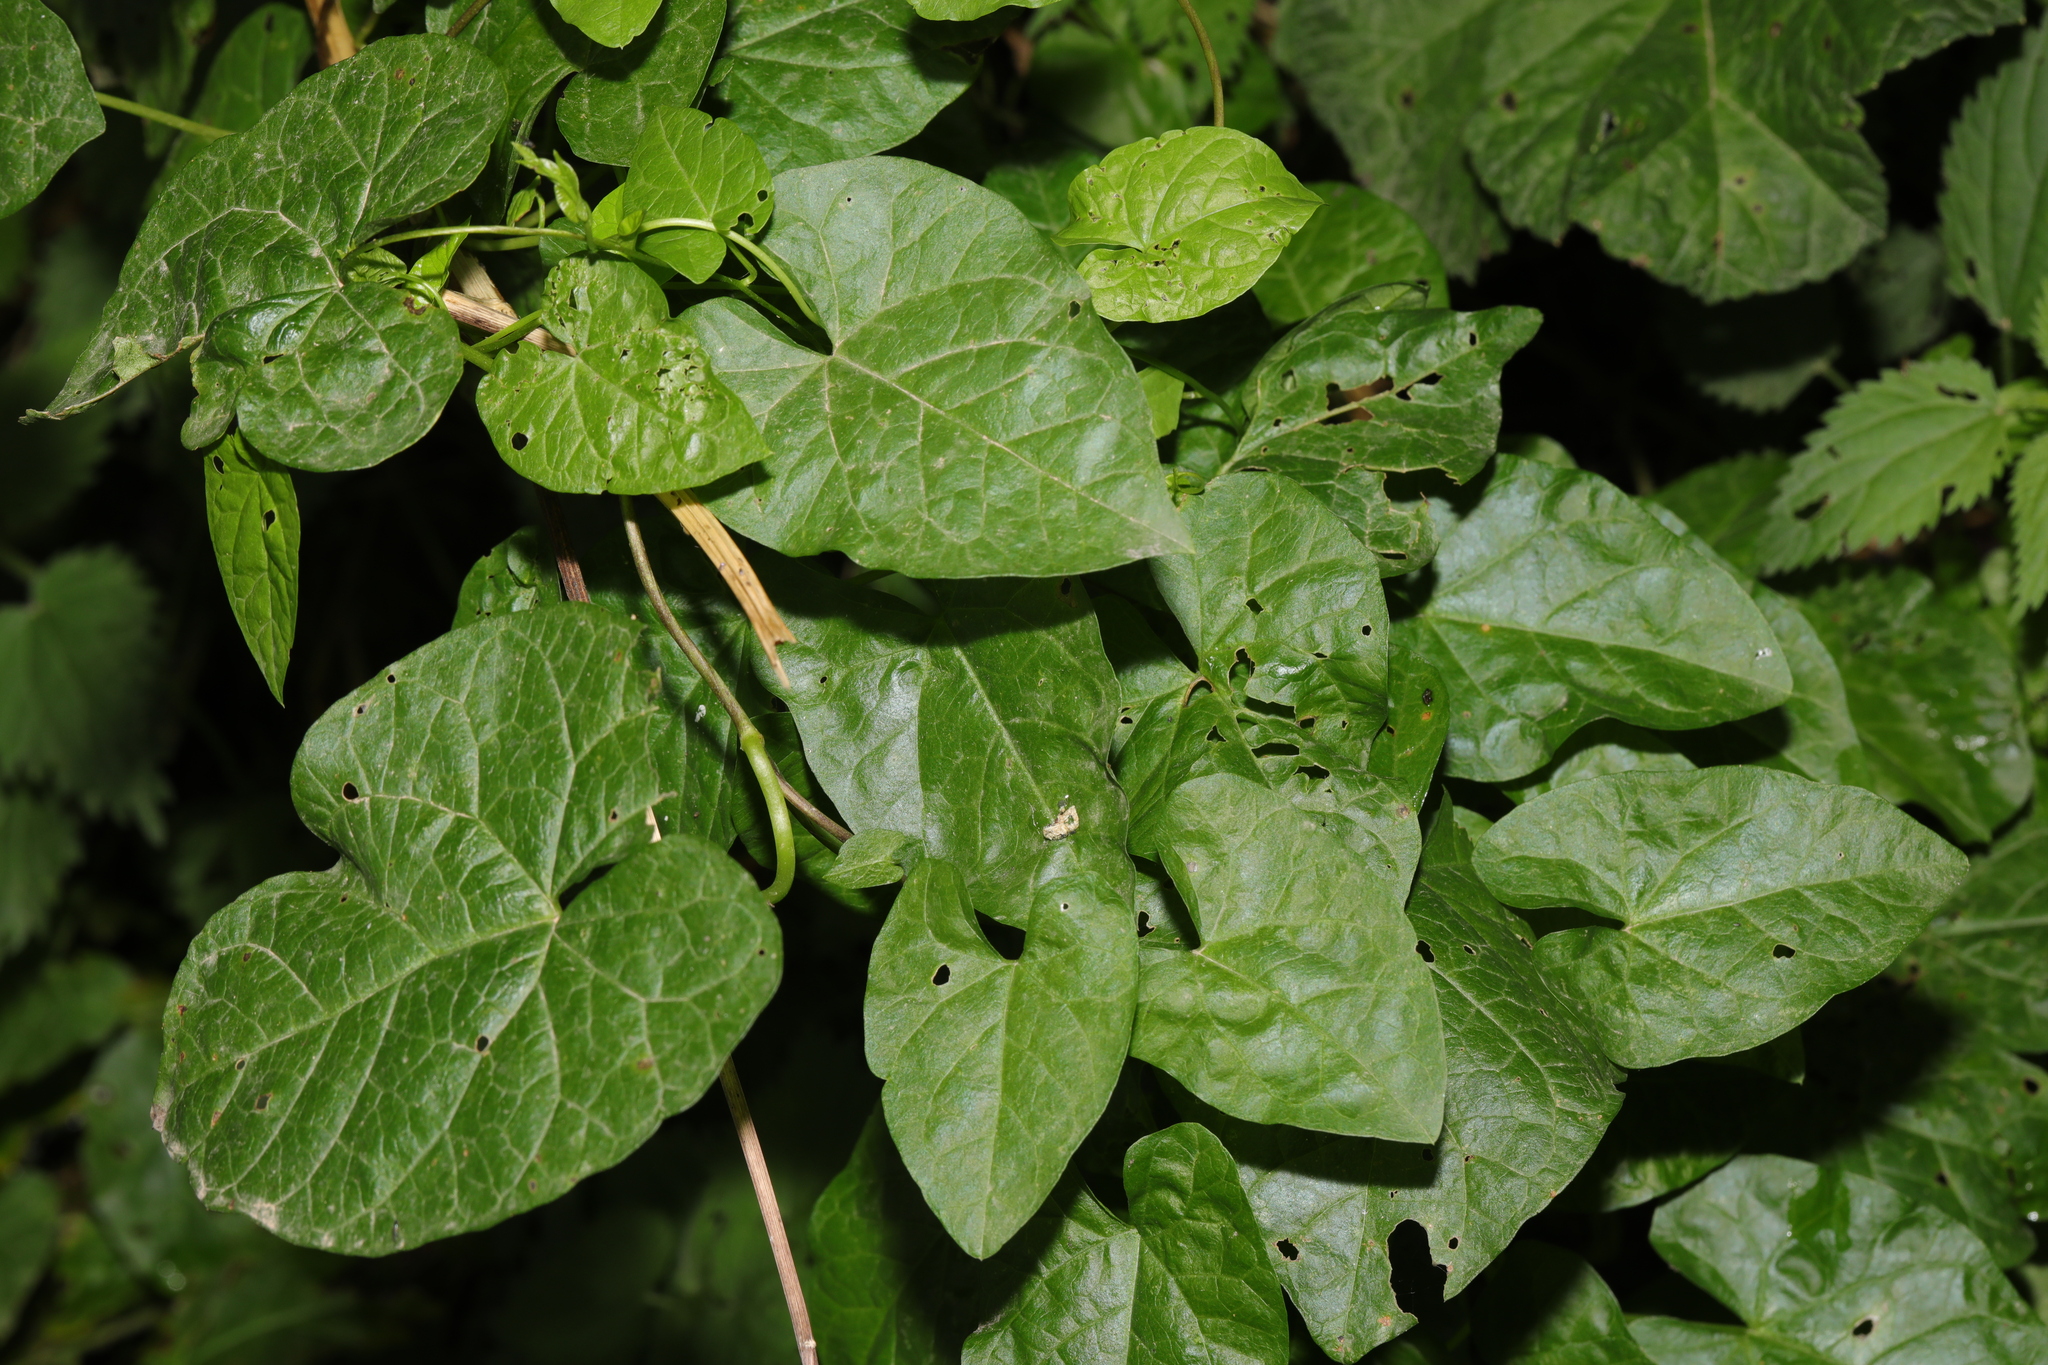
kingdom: Plantae
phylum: Tracheophyta
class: Magnoliopsida
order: Solanales
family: Convolvulaceae
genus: Calystegia
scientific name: Calystegia
